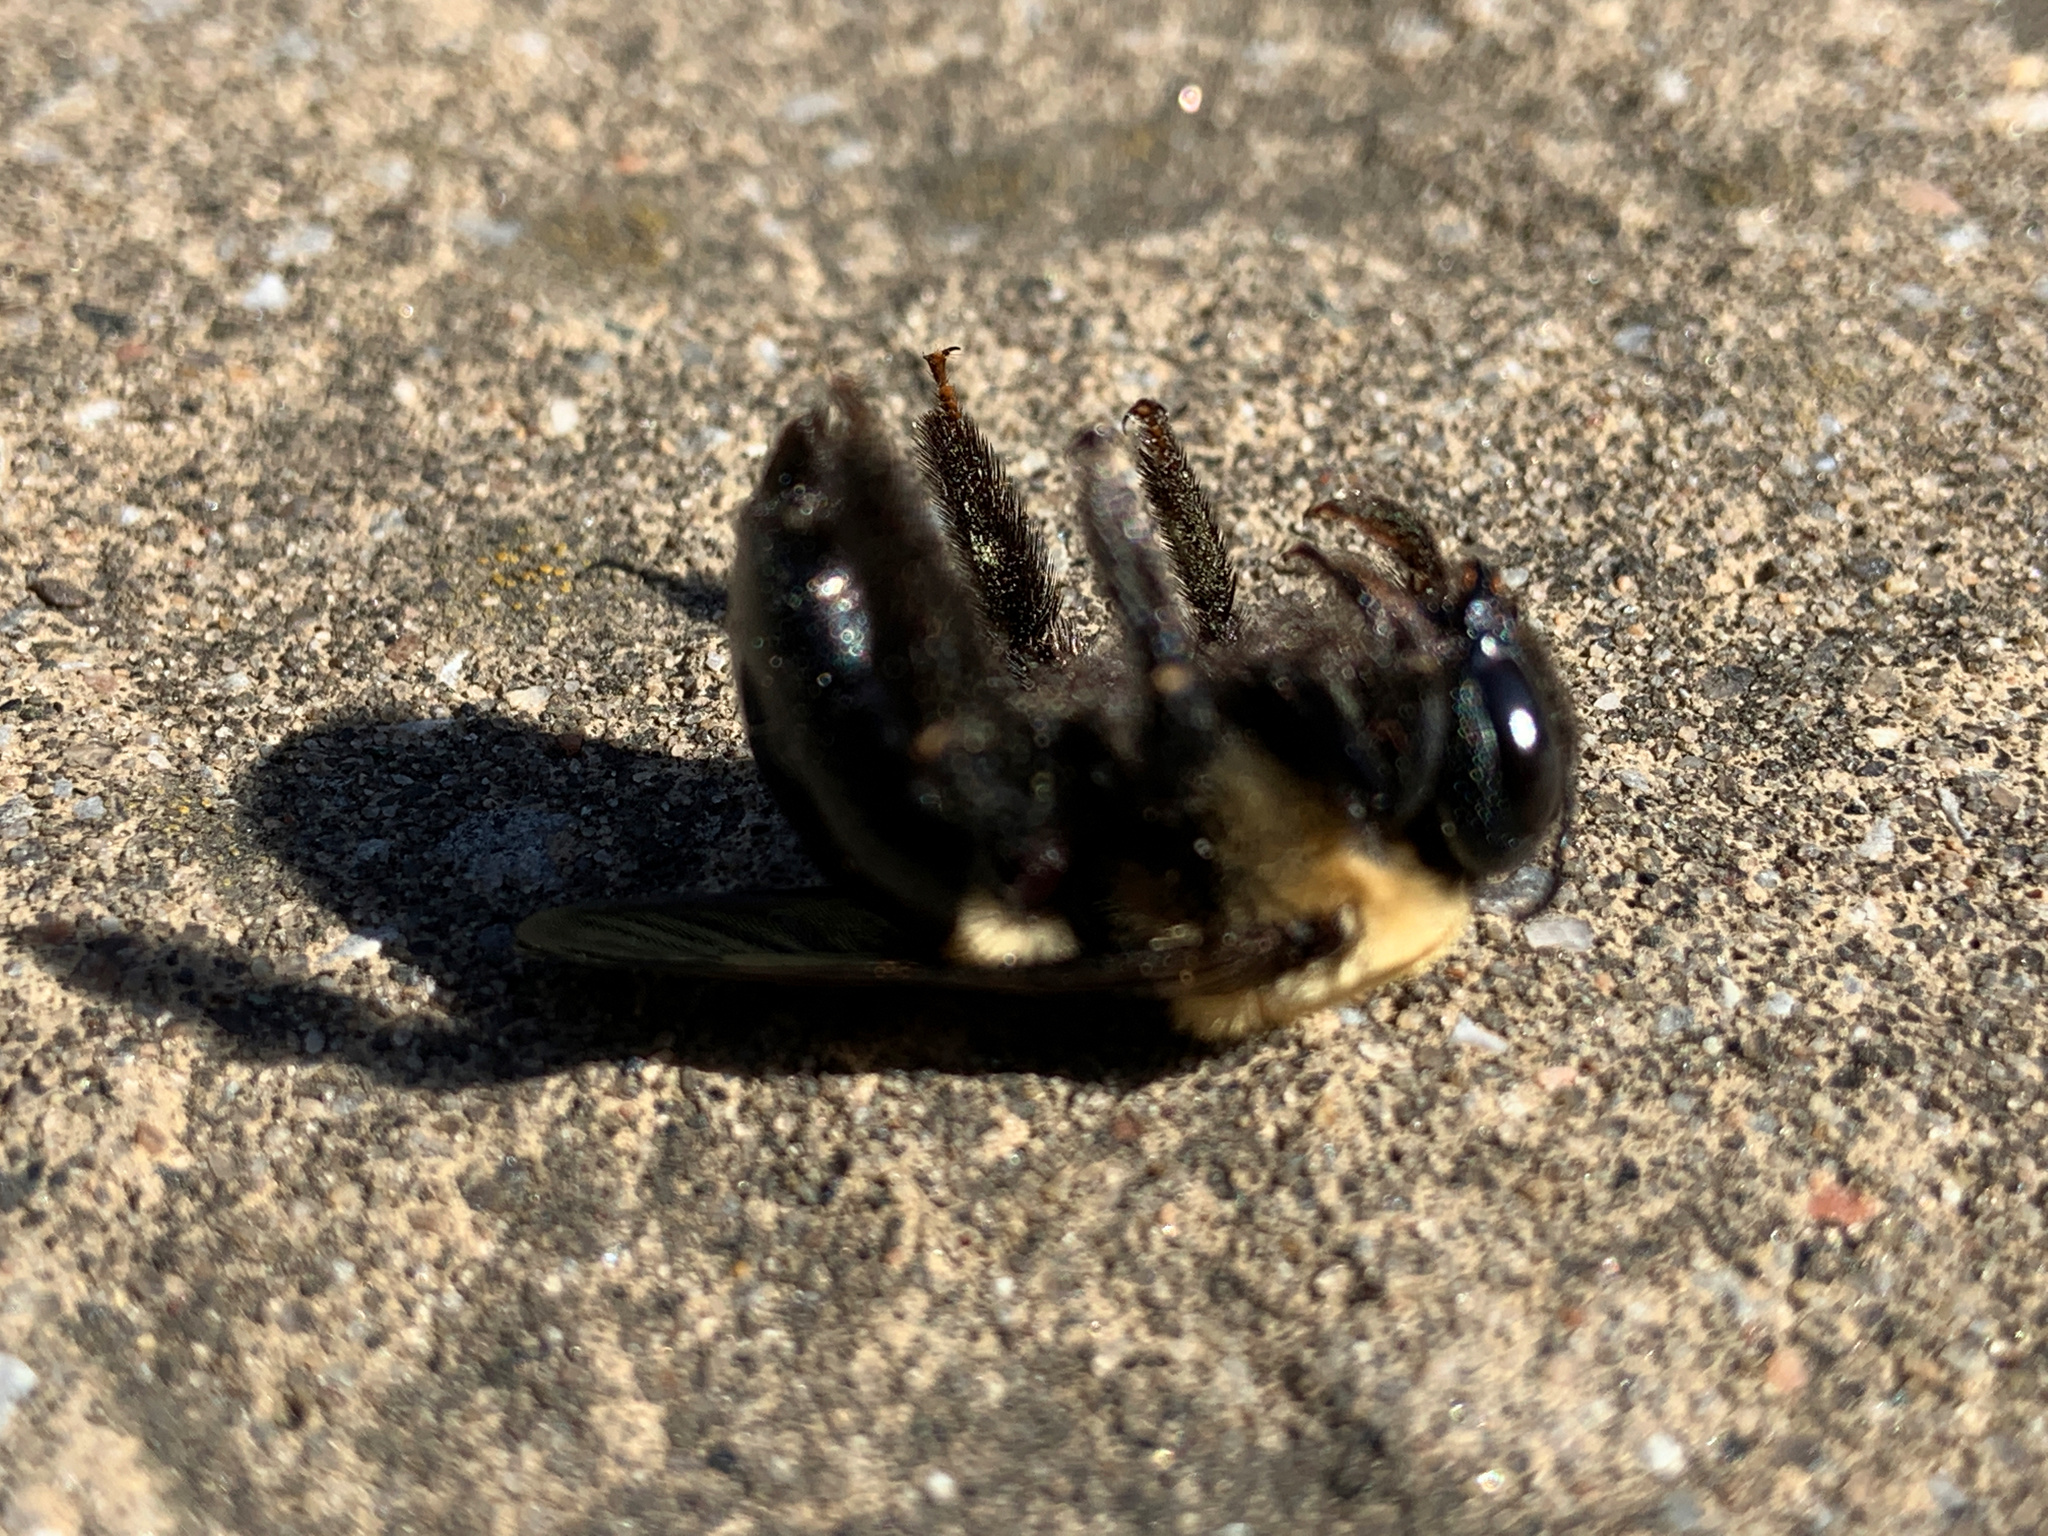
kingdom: Animalia
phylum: Arthropoda
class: Insecta
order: Hymenoptera
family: Apidae
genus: Xylocopa
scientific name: Xylocopa virginica
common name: Carpenter bee
